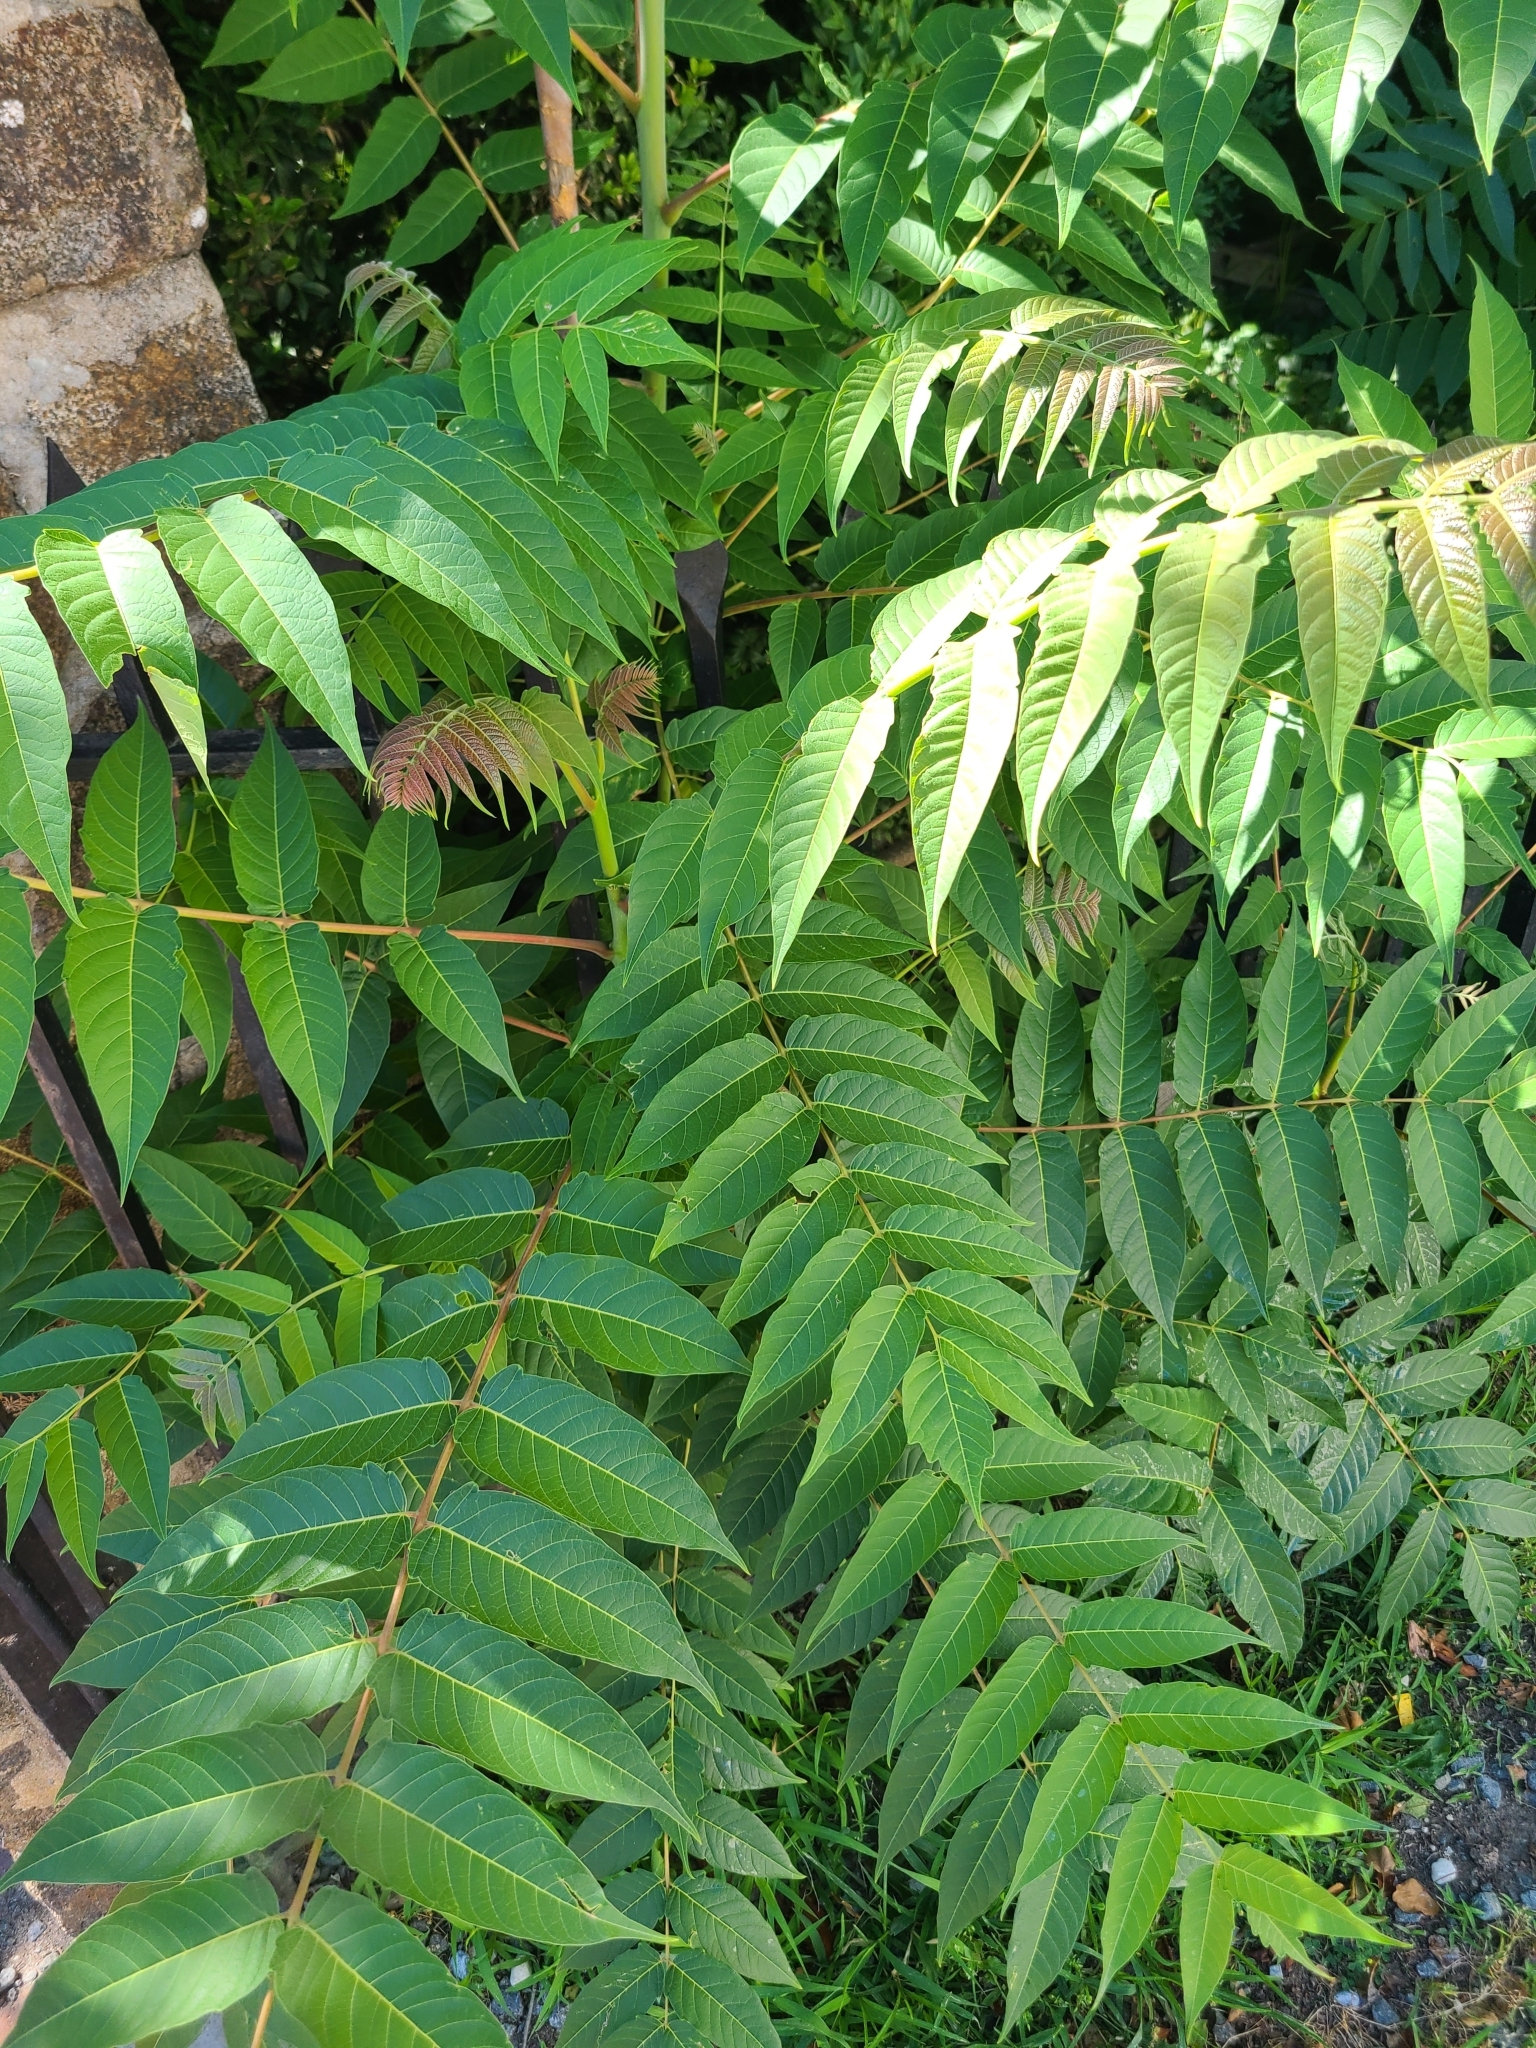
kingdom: Plantae
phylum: Tracheophyta
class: Magnoliopsida
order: Sapindales
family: Simaroubaceae
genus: Ailanthus
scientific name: Ailanthus altissima
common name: Tree-of-heaven
